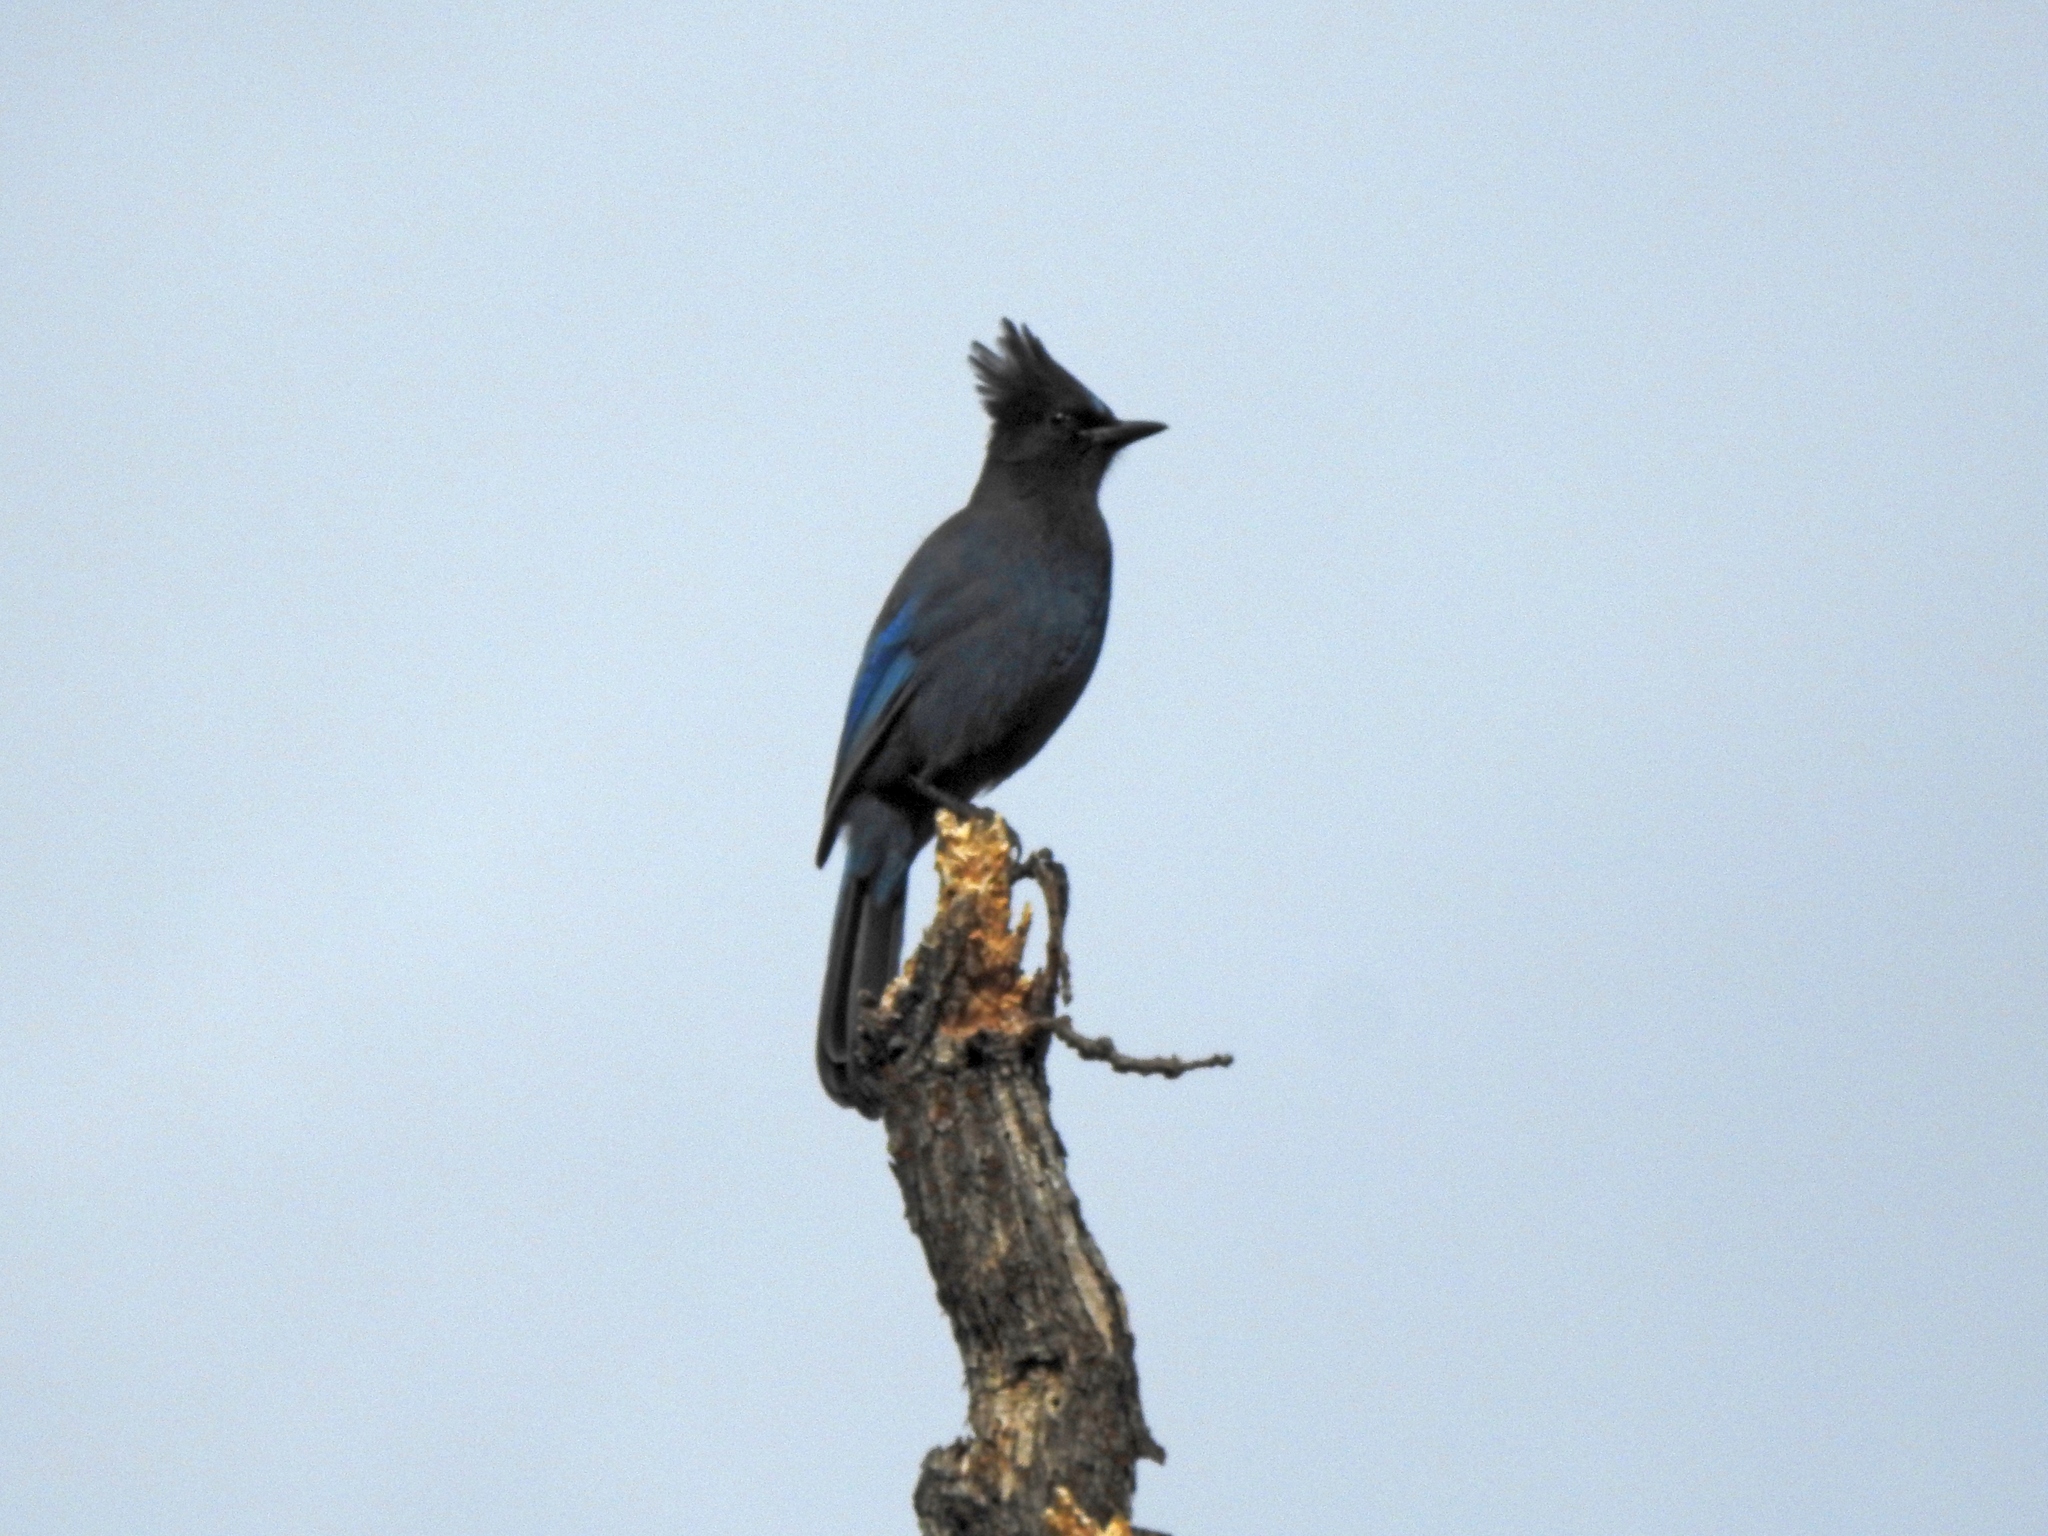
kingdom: Animalia
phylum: Chordata
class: Aves
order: Passeriformes
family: Corvidae
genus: Cyanocitta
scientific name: Cyanocitta stelleri
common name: Steller's jay
